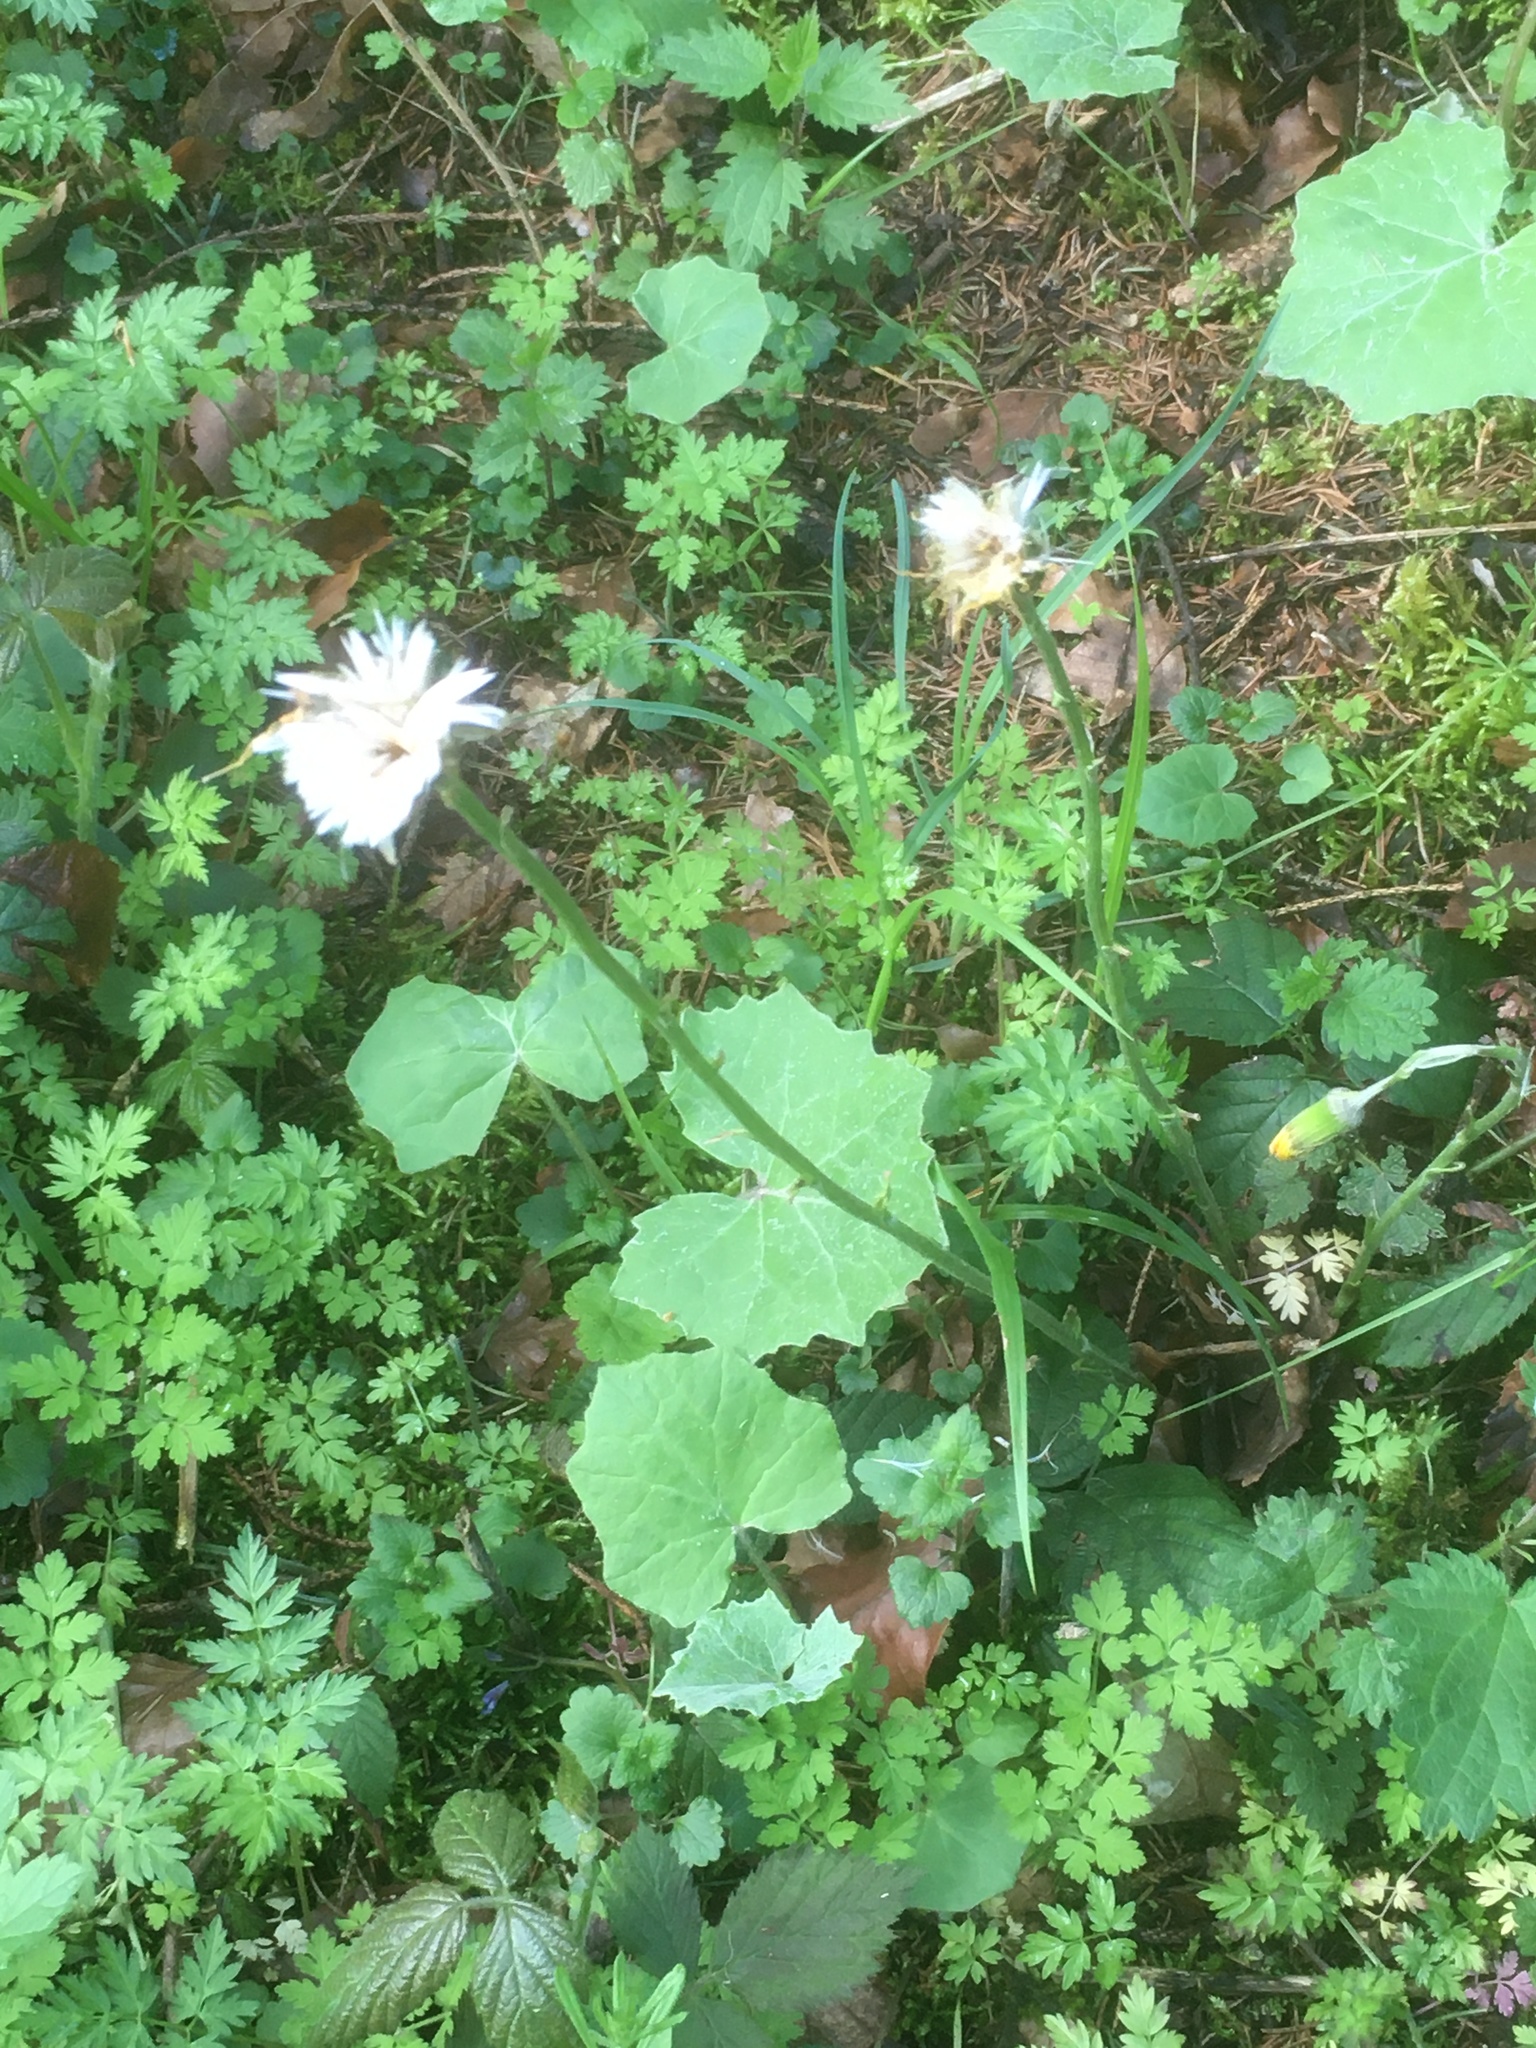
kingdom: Plantae
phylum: Tracheophyta
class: Magnoliopsida
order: Asterales
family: Asteraceae
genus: Tussilago
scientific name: Tussilago farfara
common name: Coltsfoot
